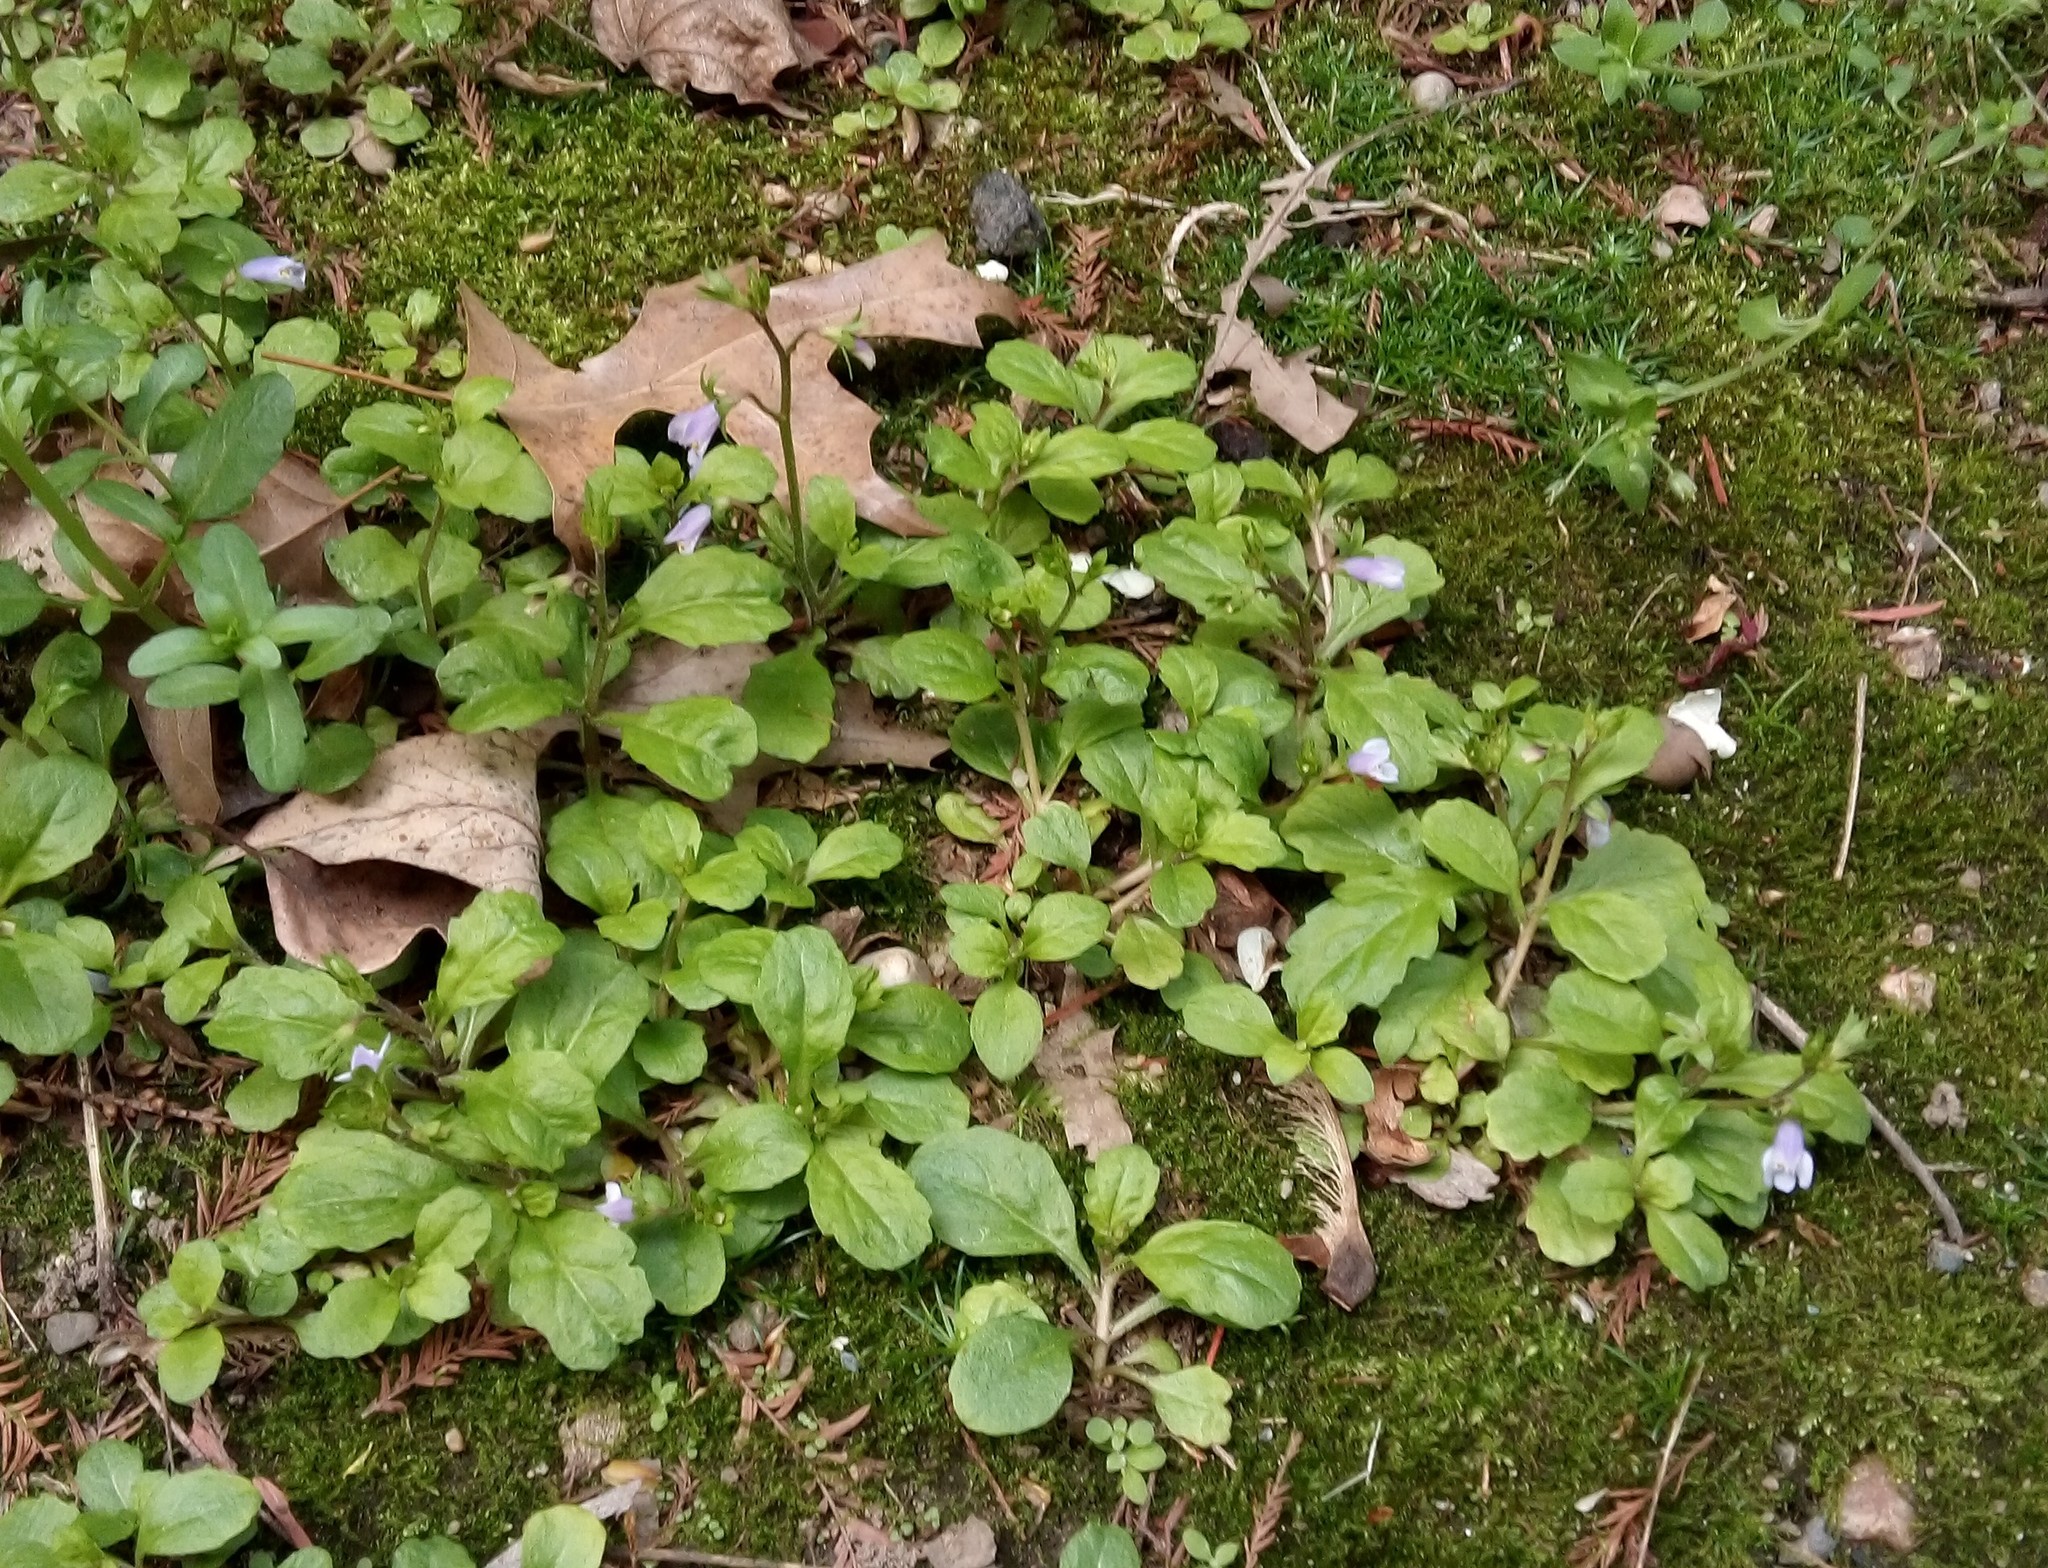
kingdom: Plantae
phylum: Tracheophyta
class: Magnoliopsida
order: Lamiales
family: Mazaceae
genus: Mazus
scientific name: Mazus pumilus
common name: Japanese mazus
